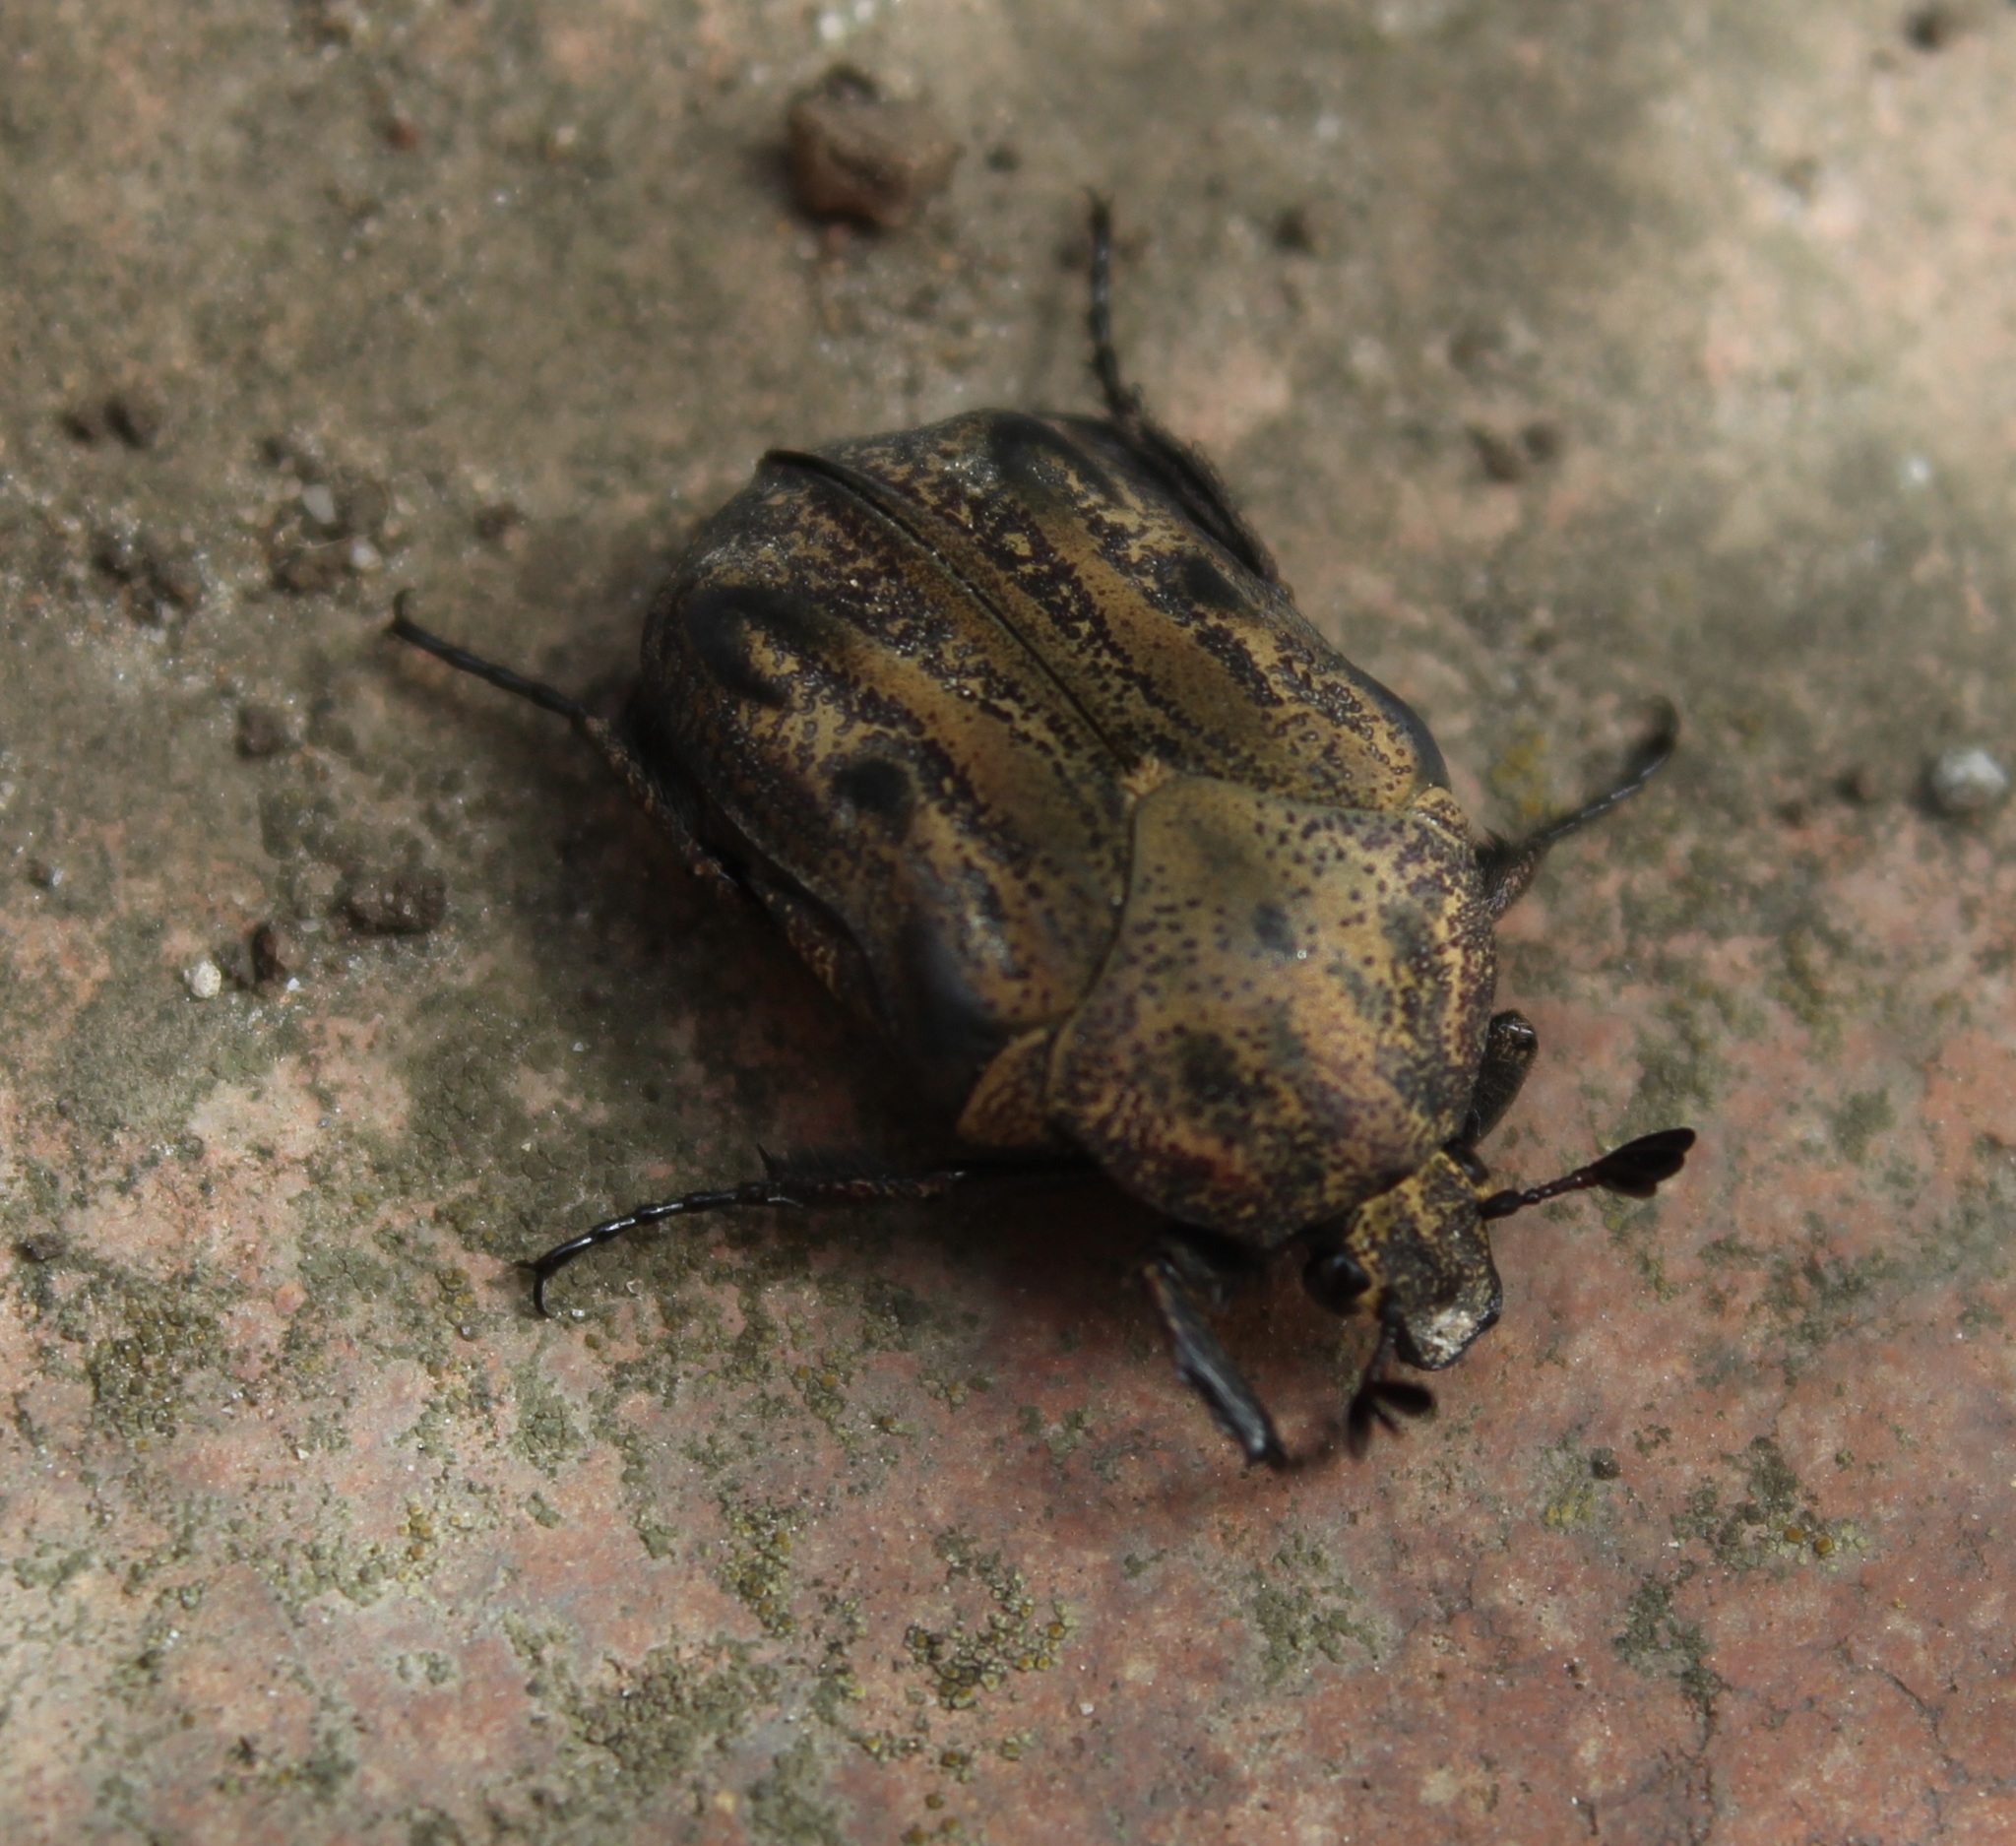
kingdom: Animalia
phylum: Arthropoda
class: Insecta
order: Coleoptera
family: Scarabaeidae
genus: Hoplopyga
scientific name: Hoplopyga liturata
